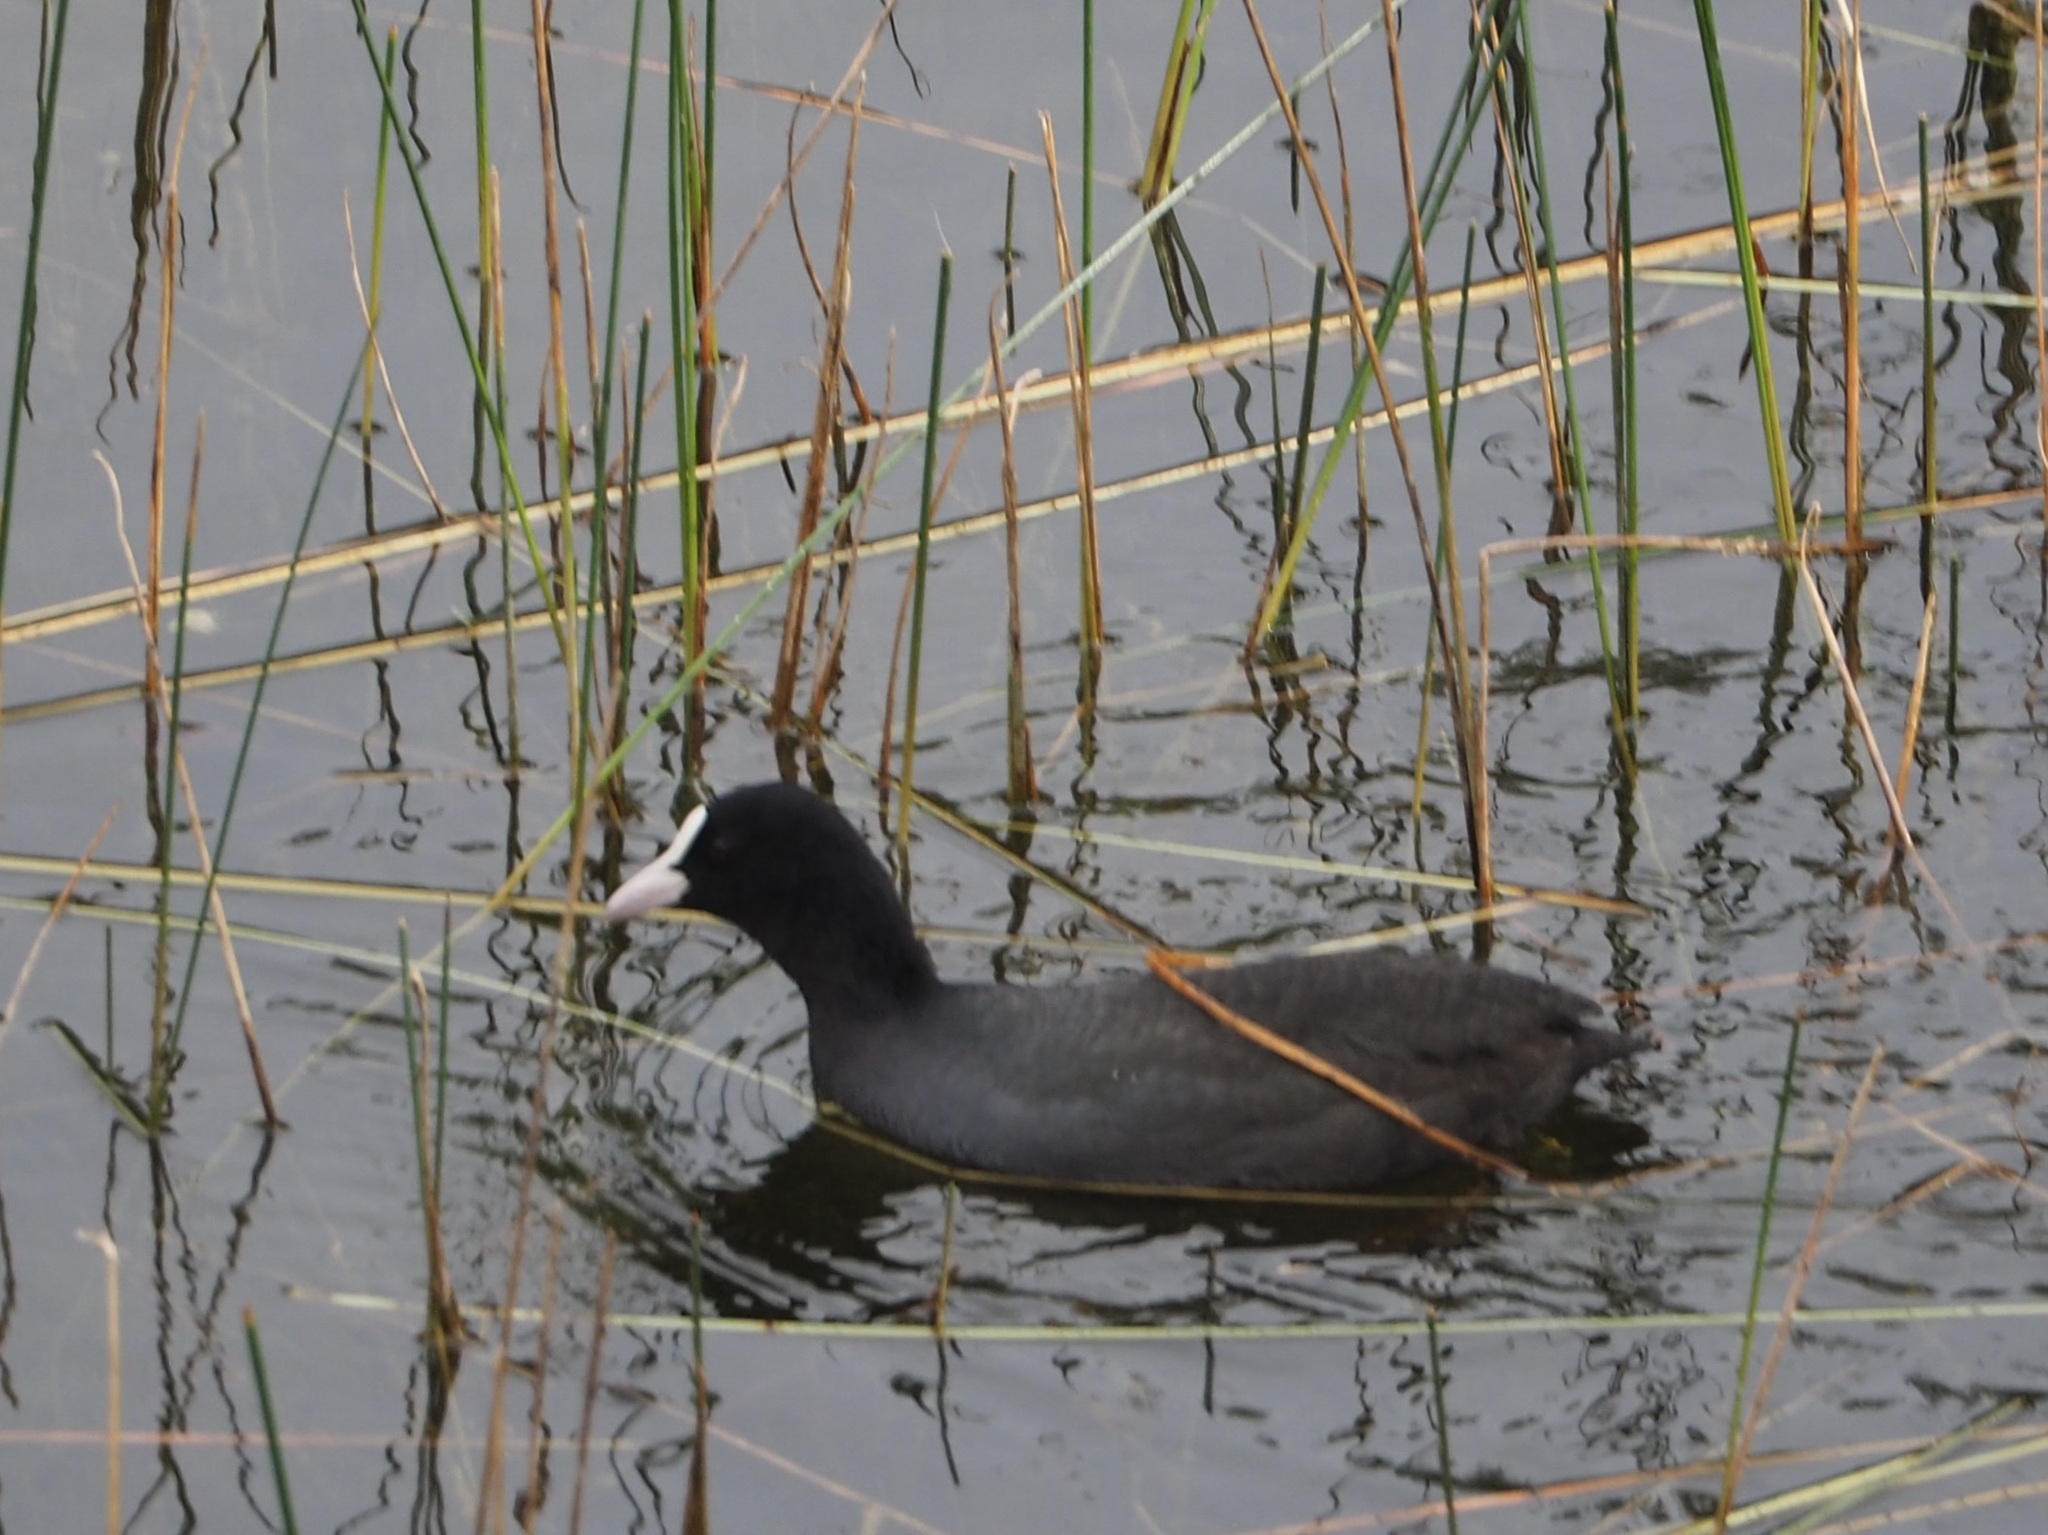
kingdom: Animalia
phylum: Chordata
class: Aves
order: Gruiformes
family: Rallidae
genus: Fulica
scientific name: Fulica atra
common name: Eurasian coot
